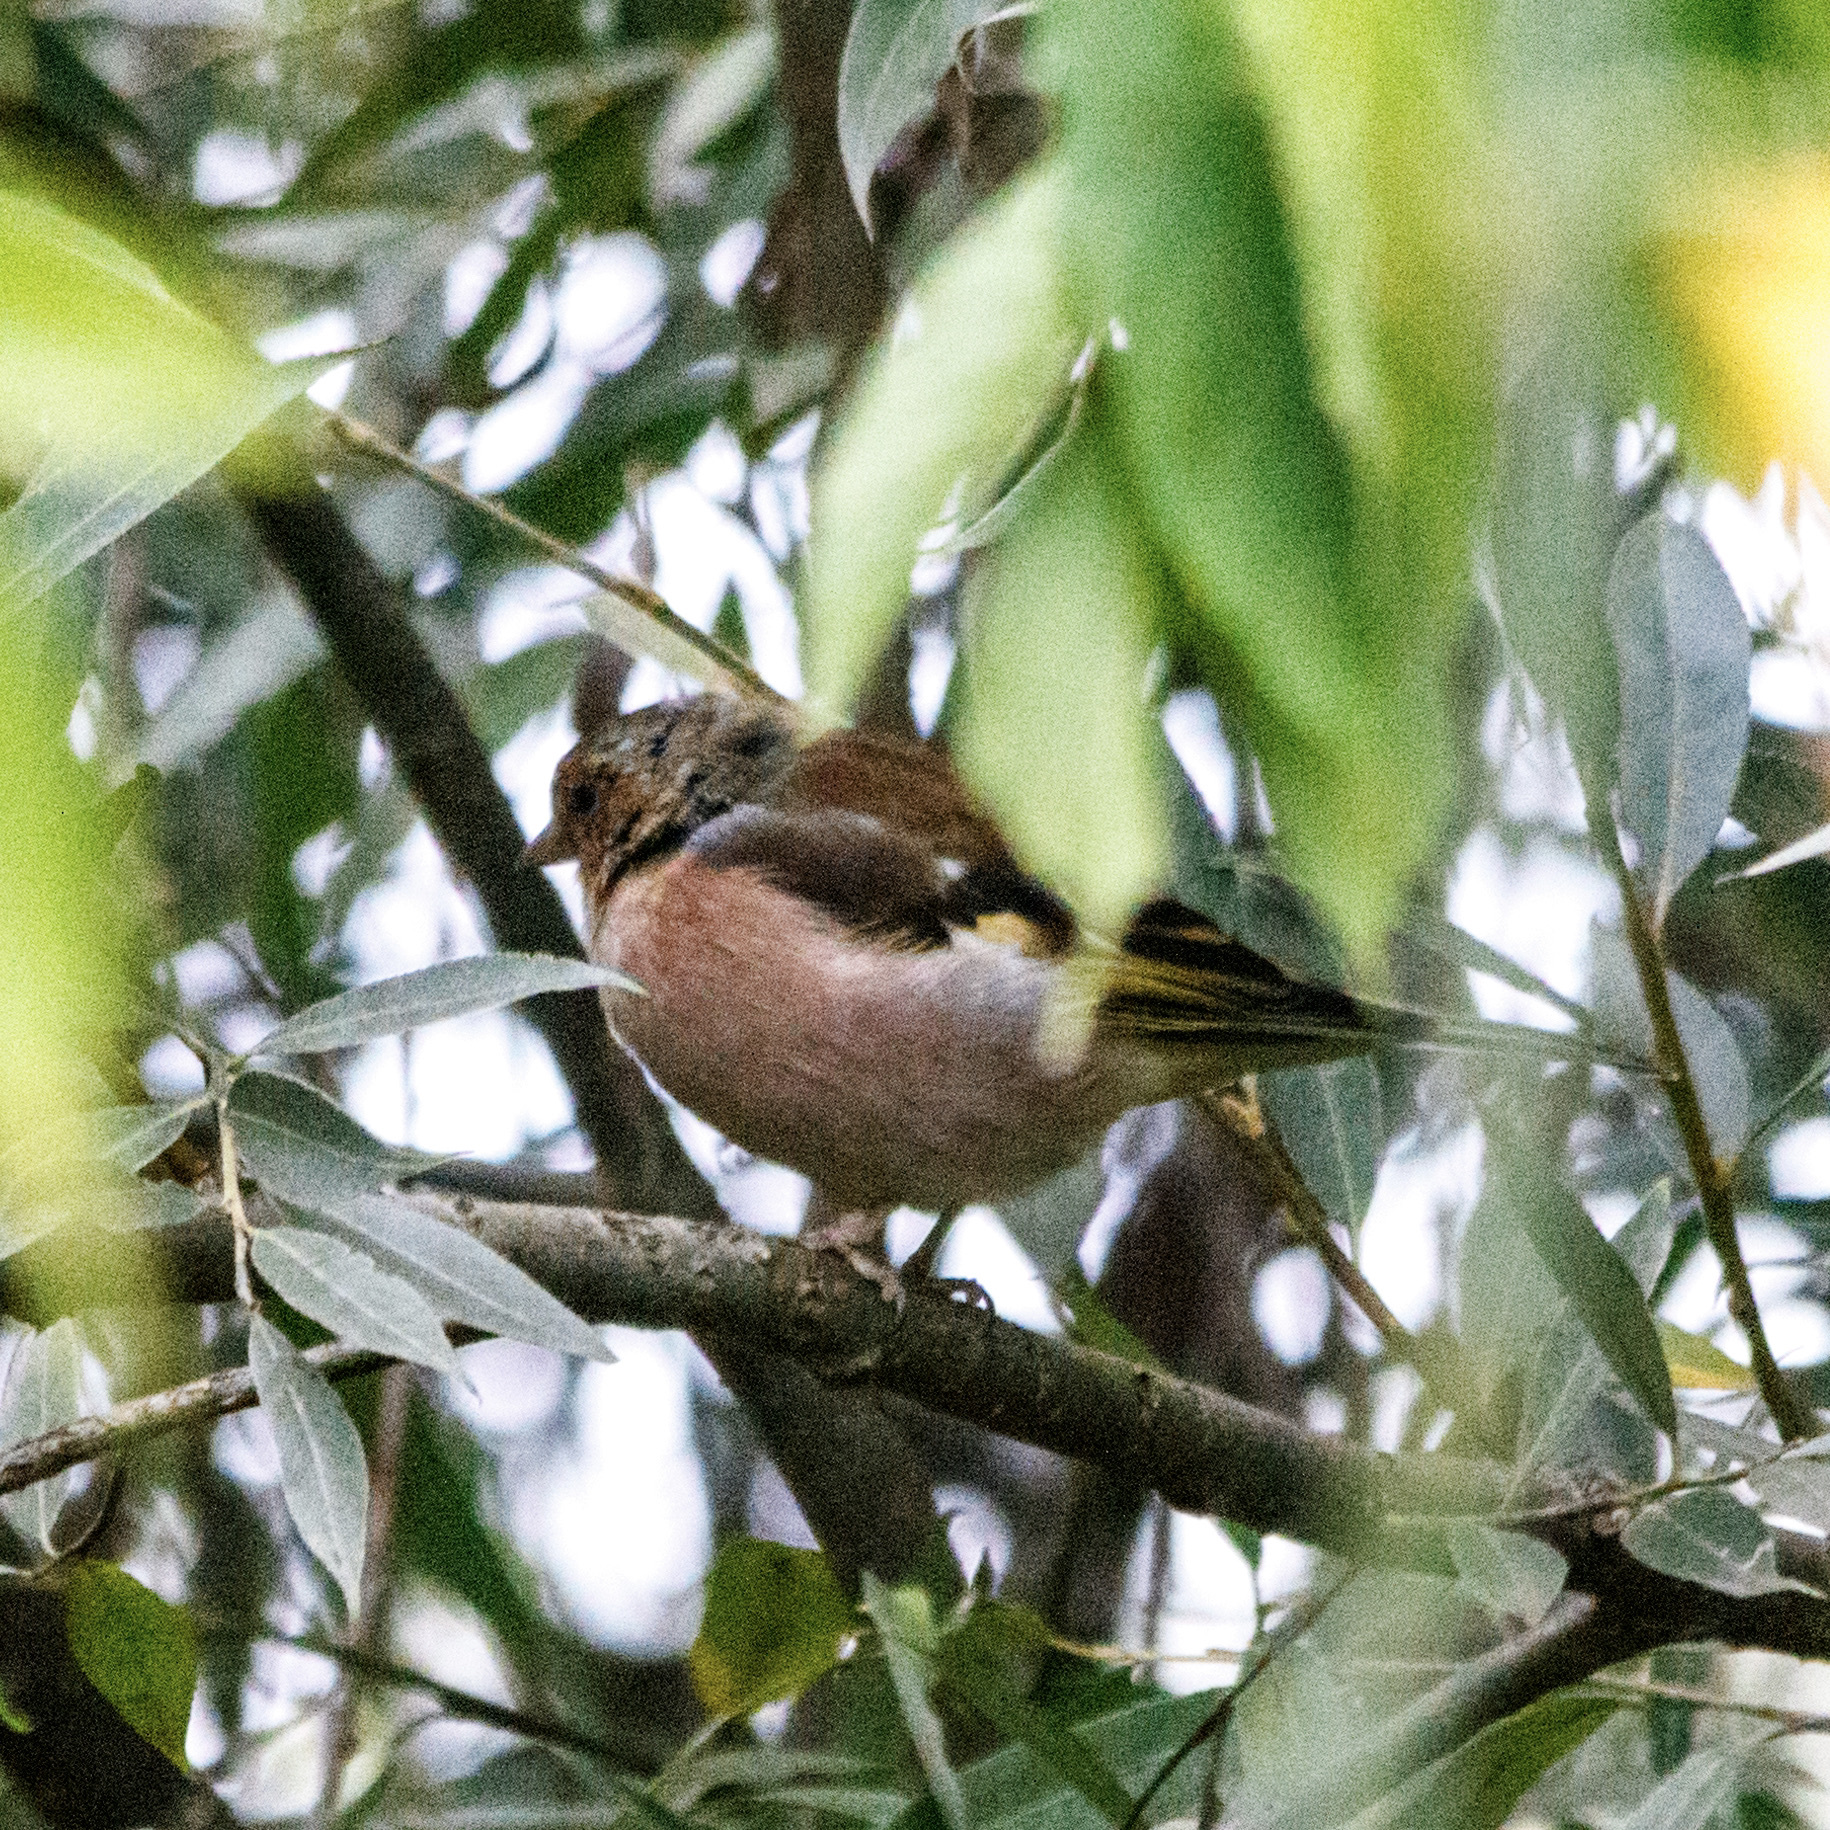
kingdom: Animalia
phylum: Chordata
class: Aves
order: Passeriformes
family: Fringillidae
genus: Fringilla
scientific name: Fringilla coelebs
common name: Common chaffinch
